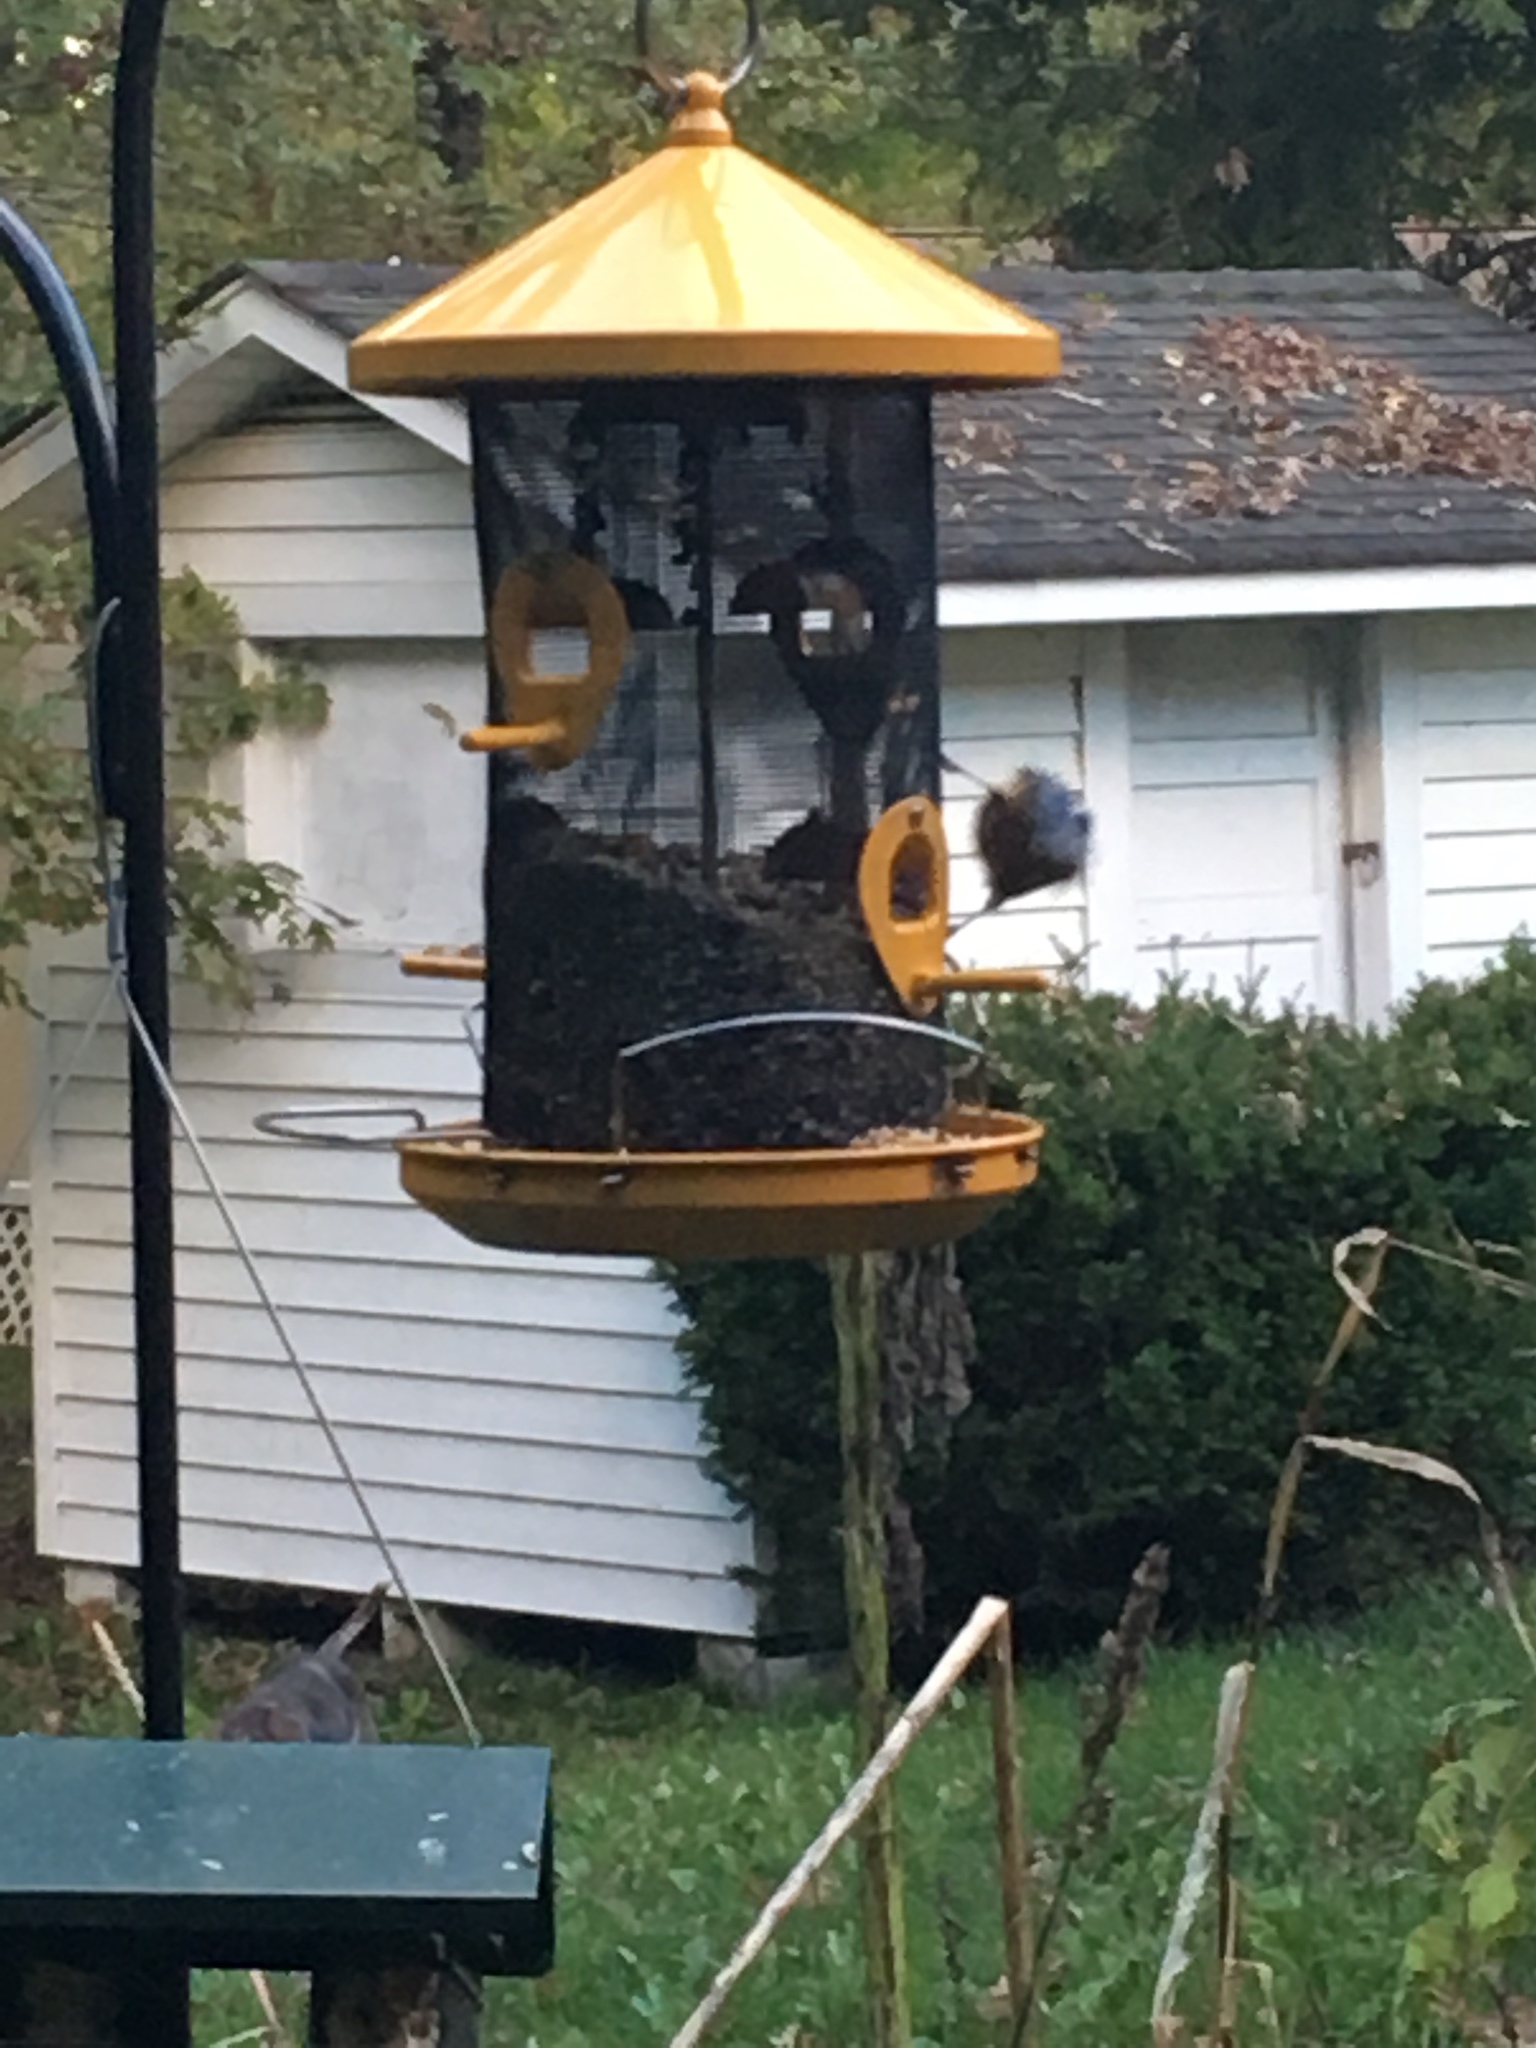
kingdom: Animalia
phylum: Chordata
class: Aves
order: Passeriformes
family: Sittidae
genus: Sitta
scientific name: Sitta canadensis
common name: Red-breasted nuthatch
